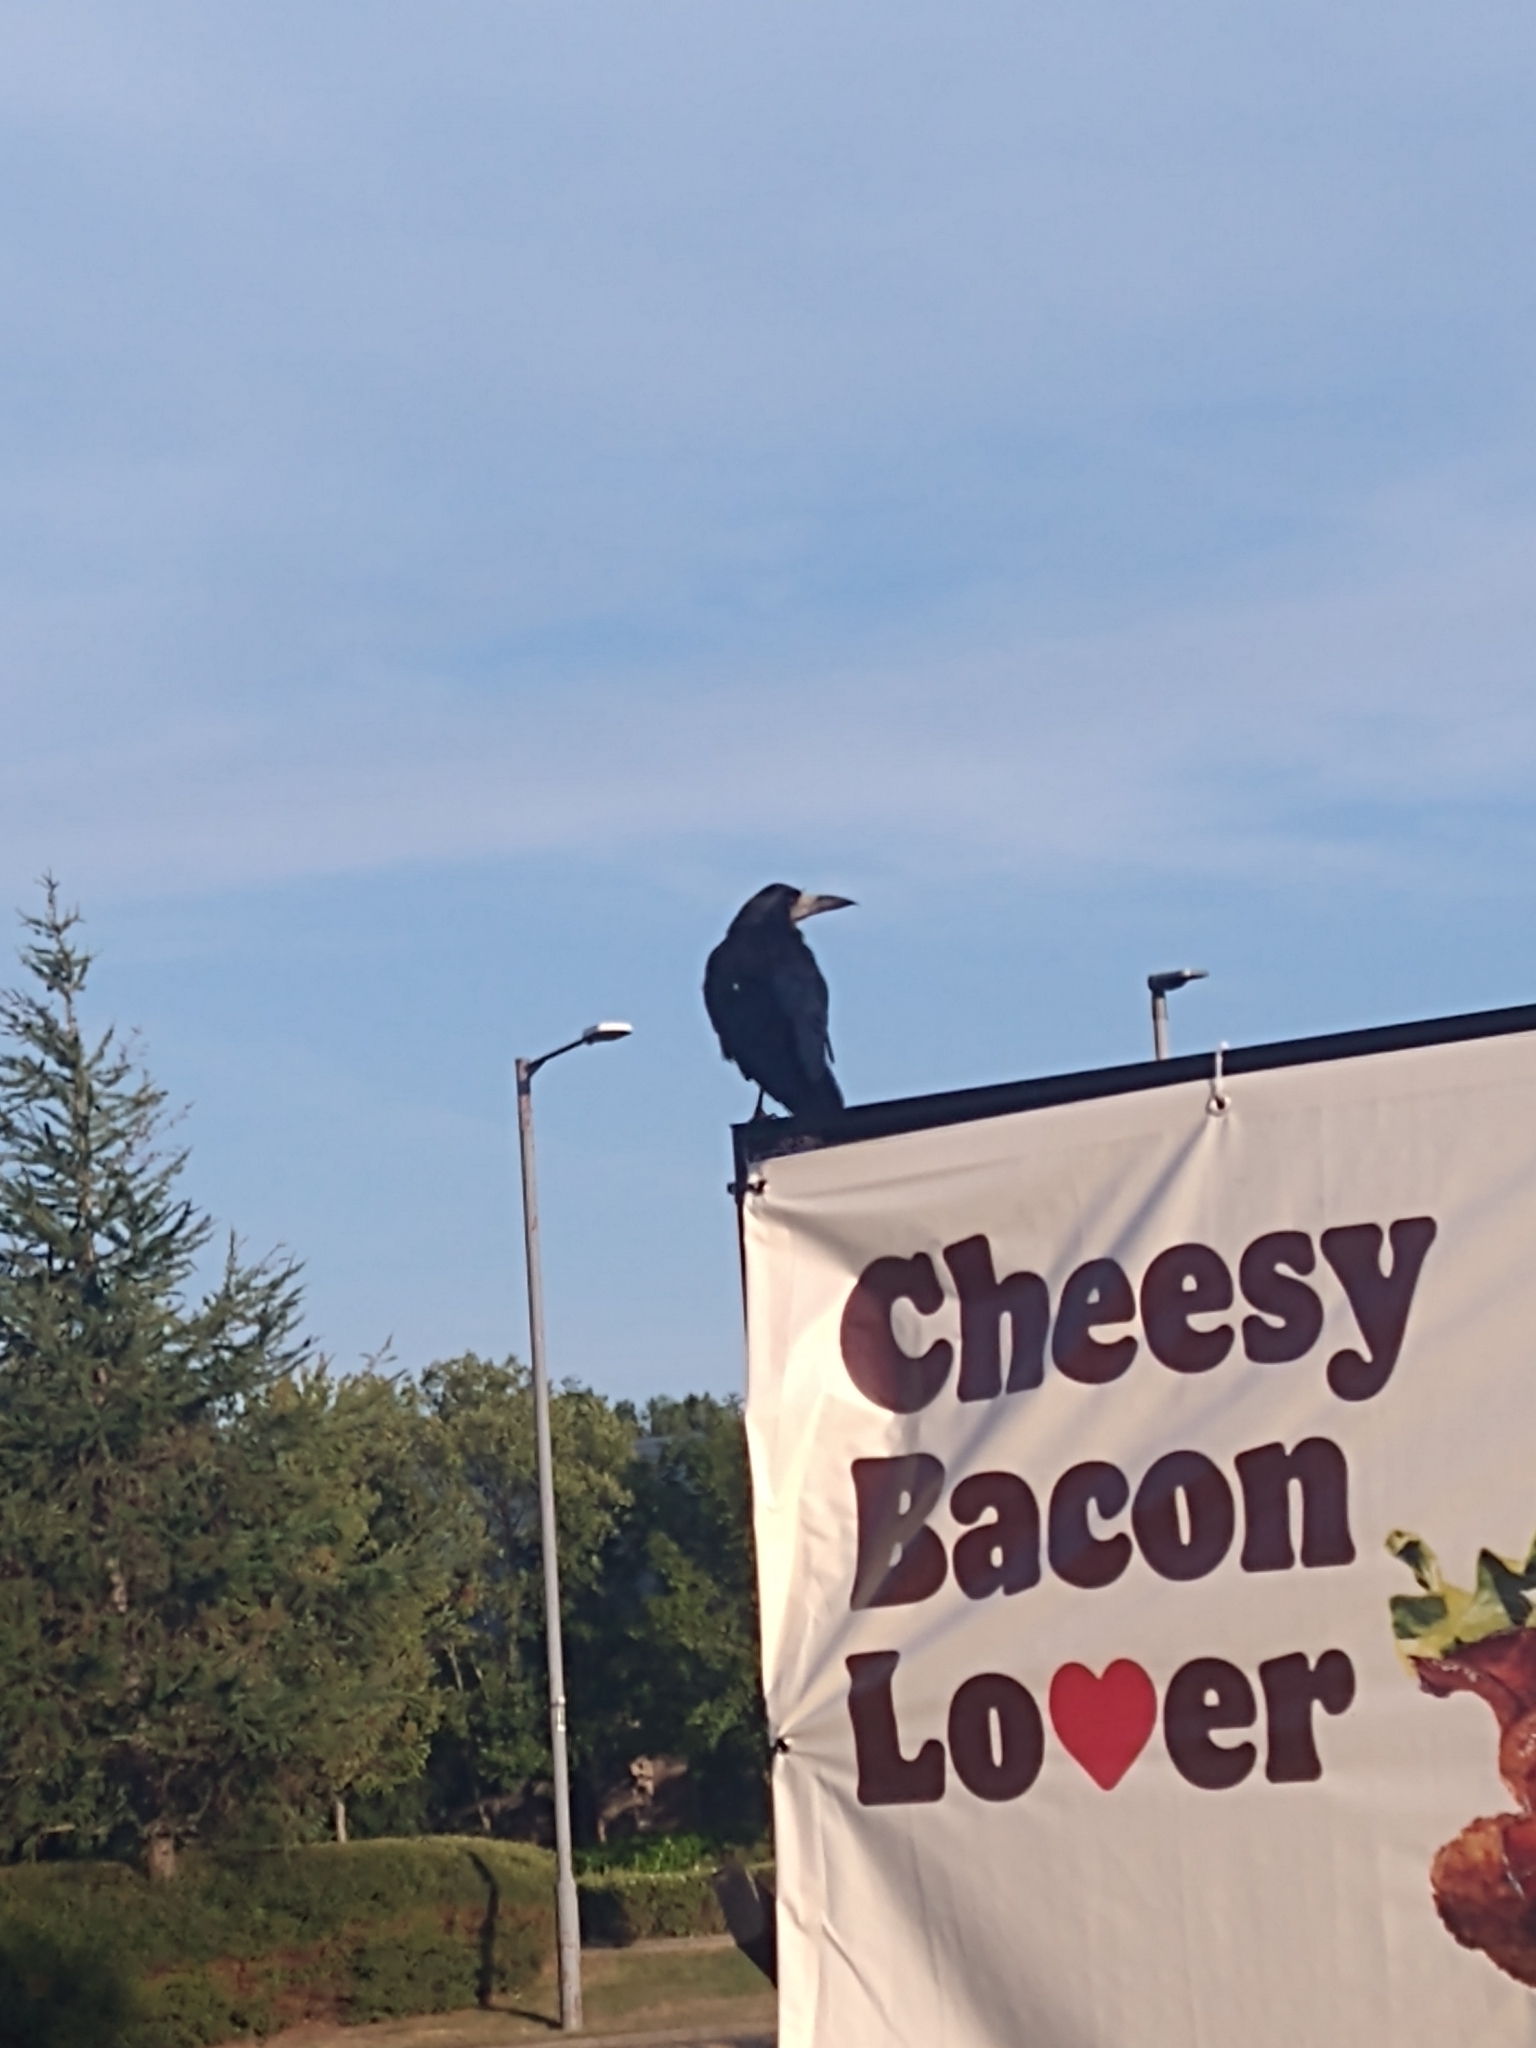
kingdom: Animalia
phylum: Chordata
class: Aves
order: Passeriformes
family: Corvidae
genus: Corvus
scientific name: Corvus frugilegus
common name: Rook
